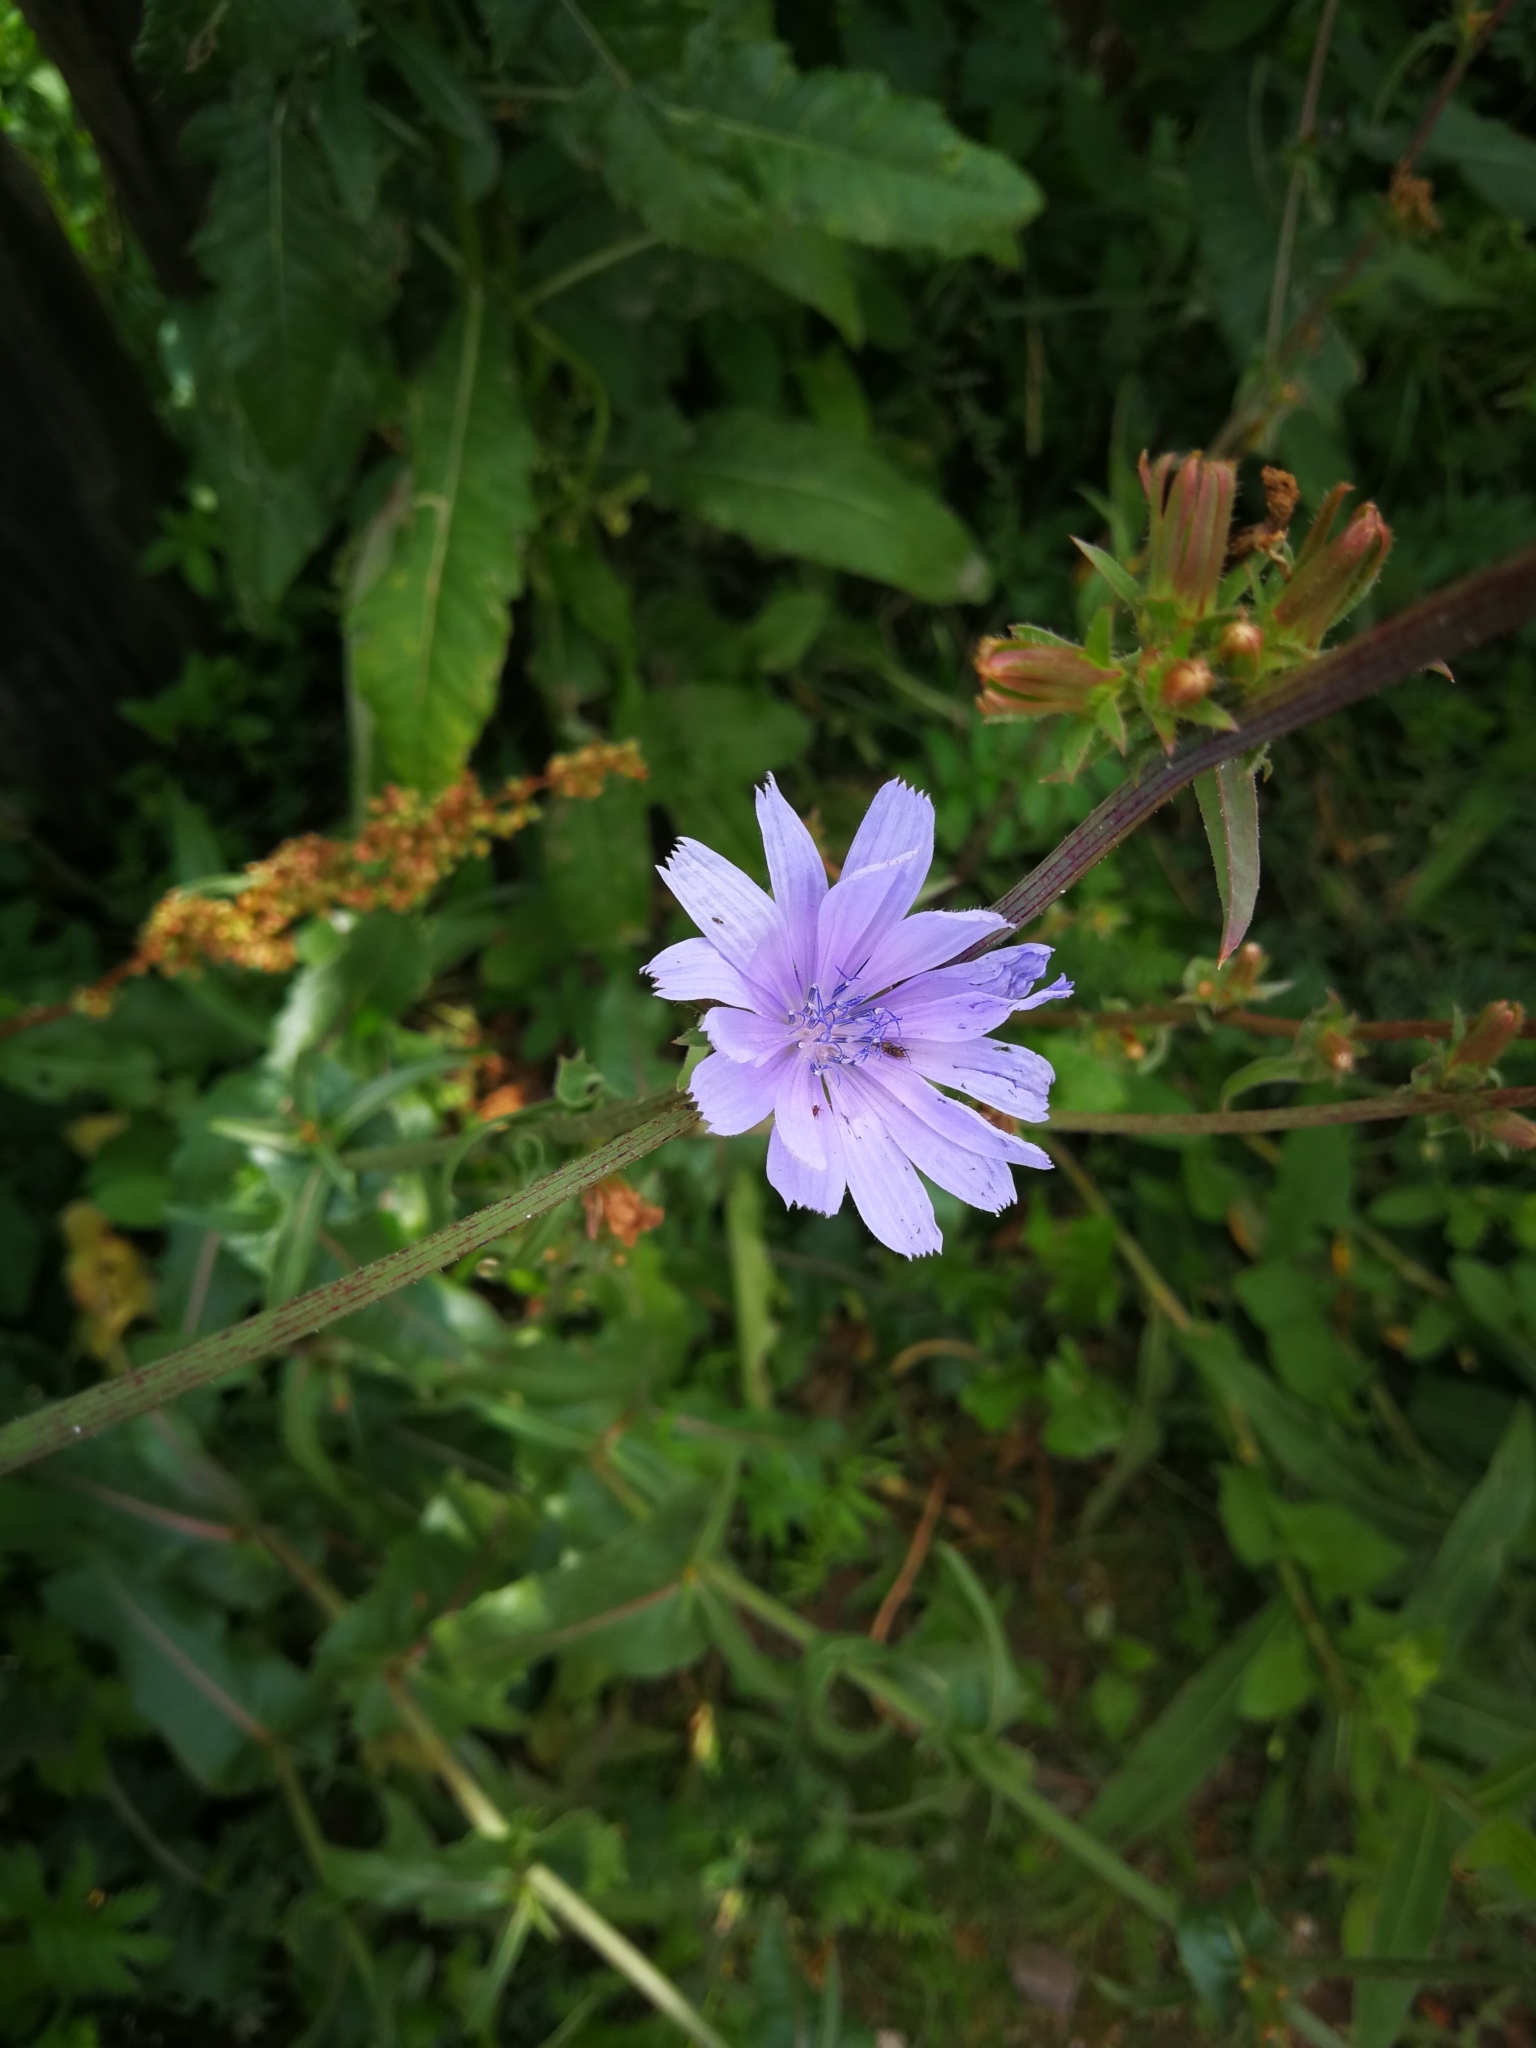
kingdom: Plantae
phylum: Tracheophyta
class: Magnoliopsida
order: Asterales
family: Asteraceae
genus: Cichorium
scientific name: Cichorium intybus
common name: Chicory
